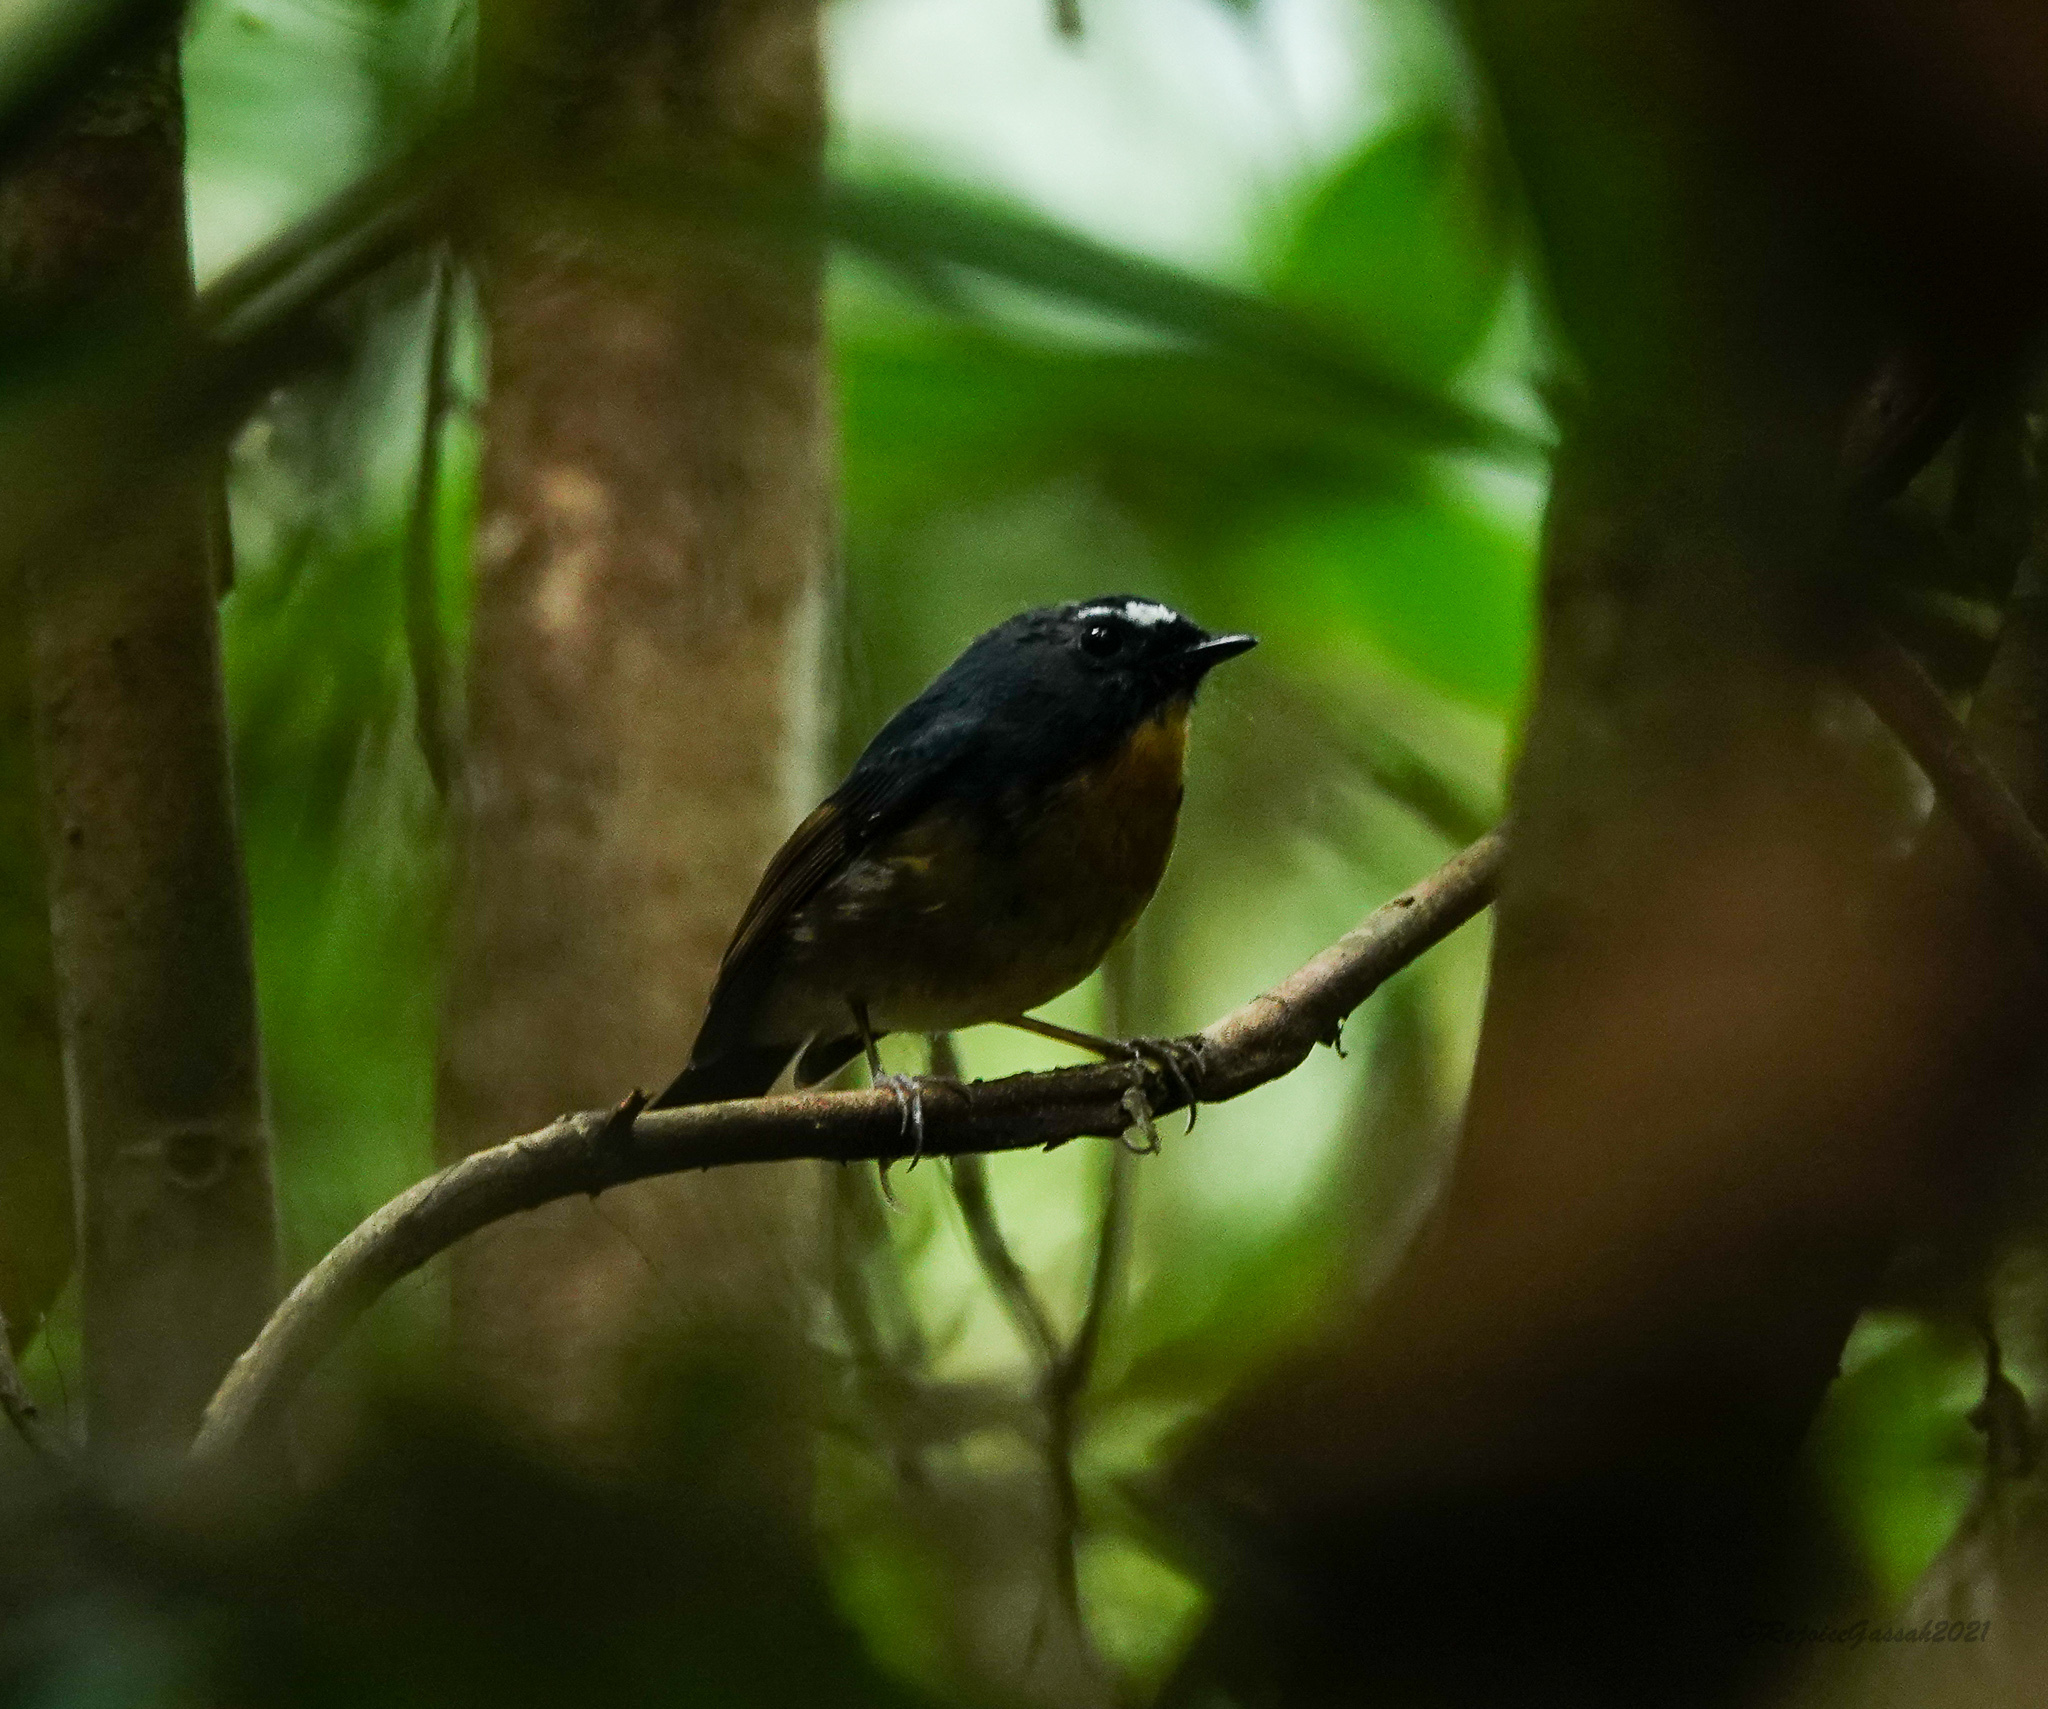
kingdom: Animalia
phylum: Chordata
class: Aves
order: Passeriformes
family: Muscicapidae
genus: Ficedula
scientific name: Ficedula hyperythra
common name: Snowy-browed flycatcher
